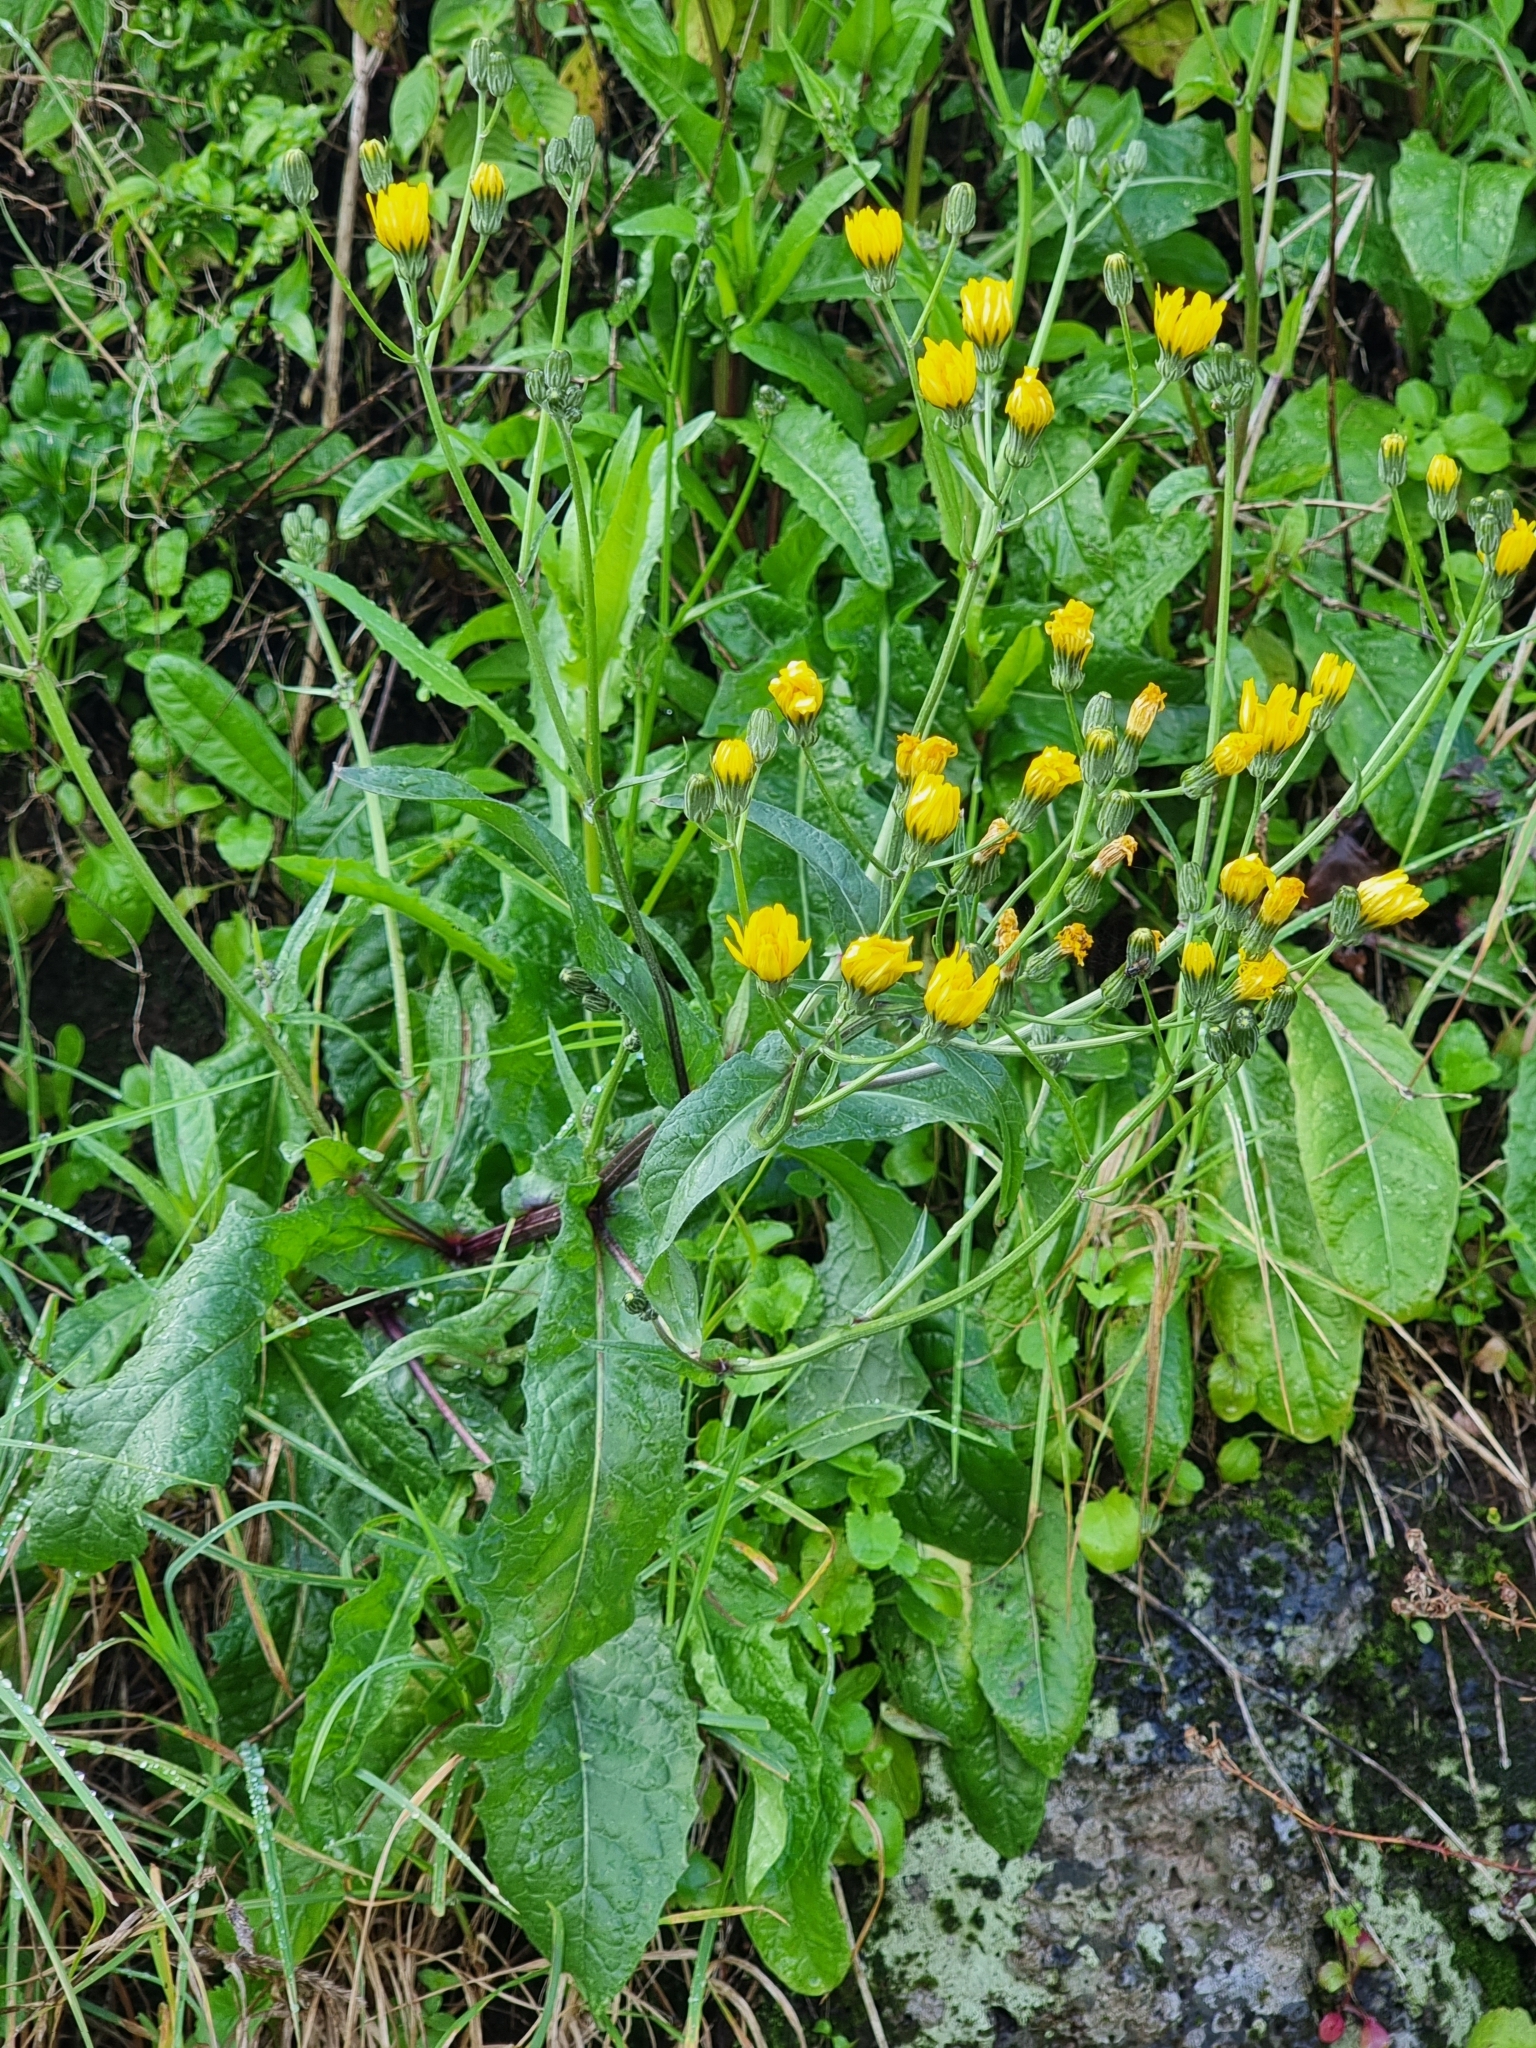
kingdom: Plantae
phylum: Tracheophyta
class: Magnoliopsida
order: Asterales
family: Asteraceae
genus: Lactuca
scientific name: Lactuca virosa
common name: Great lettuce
